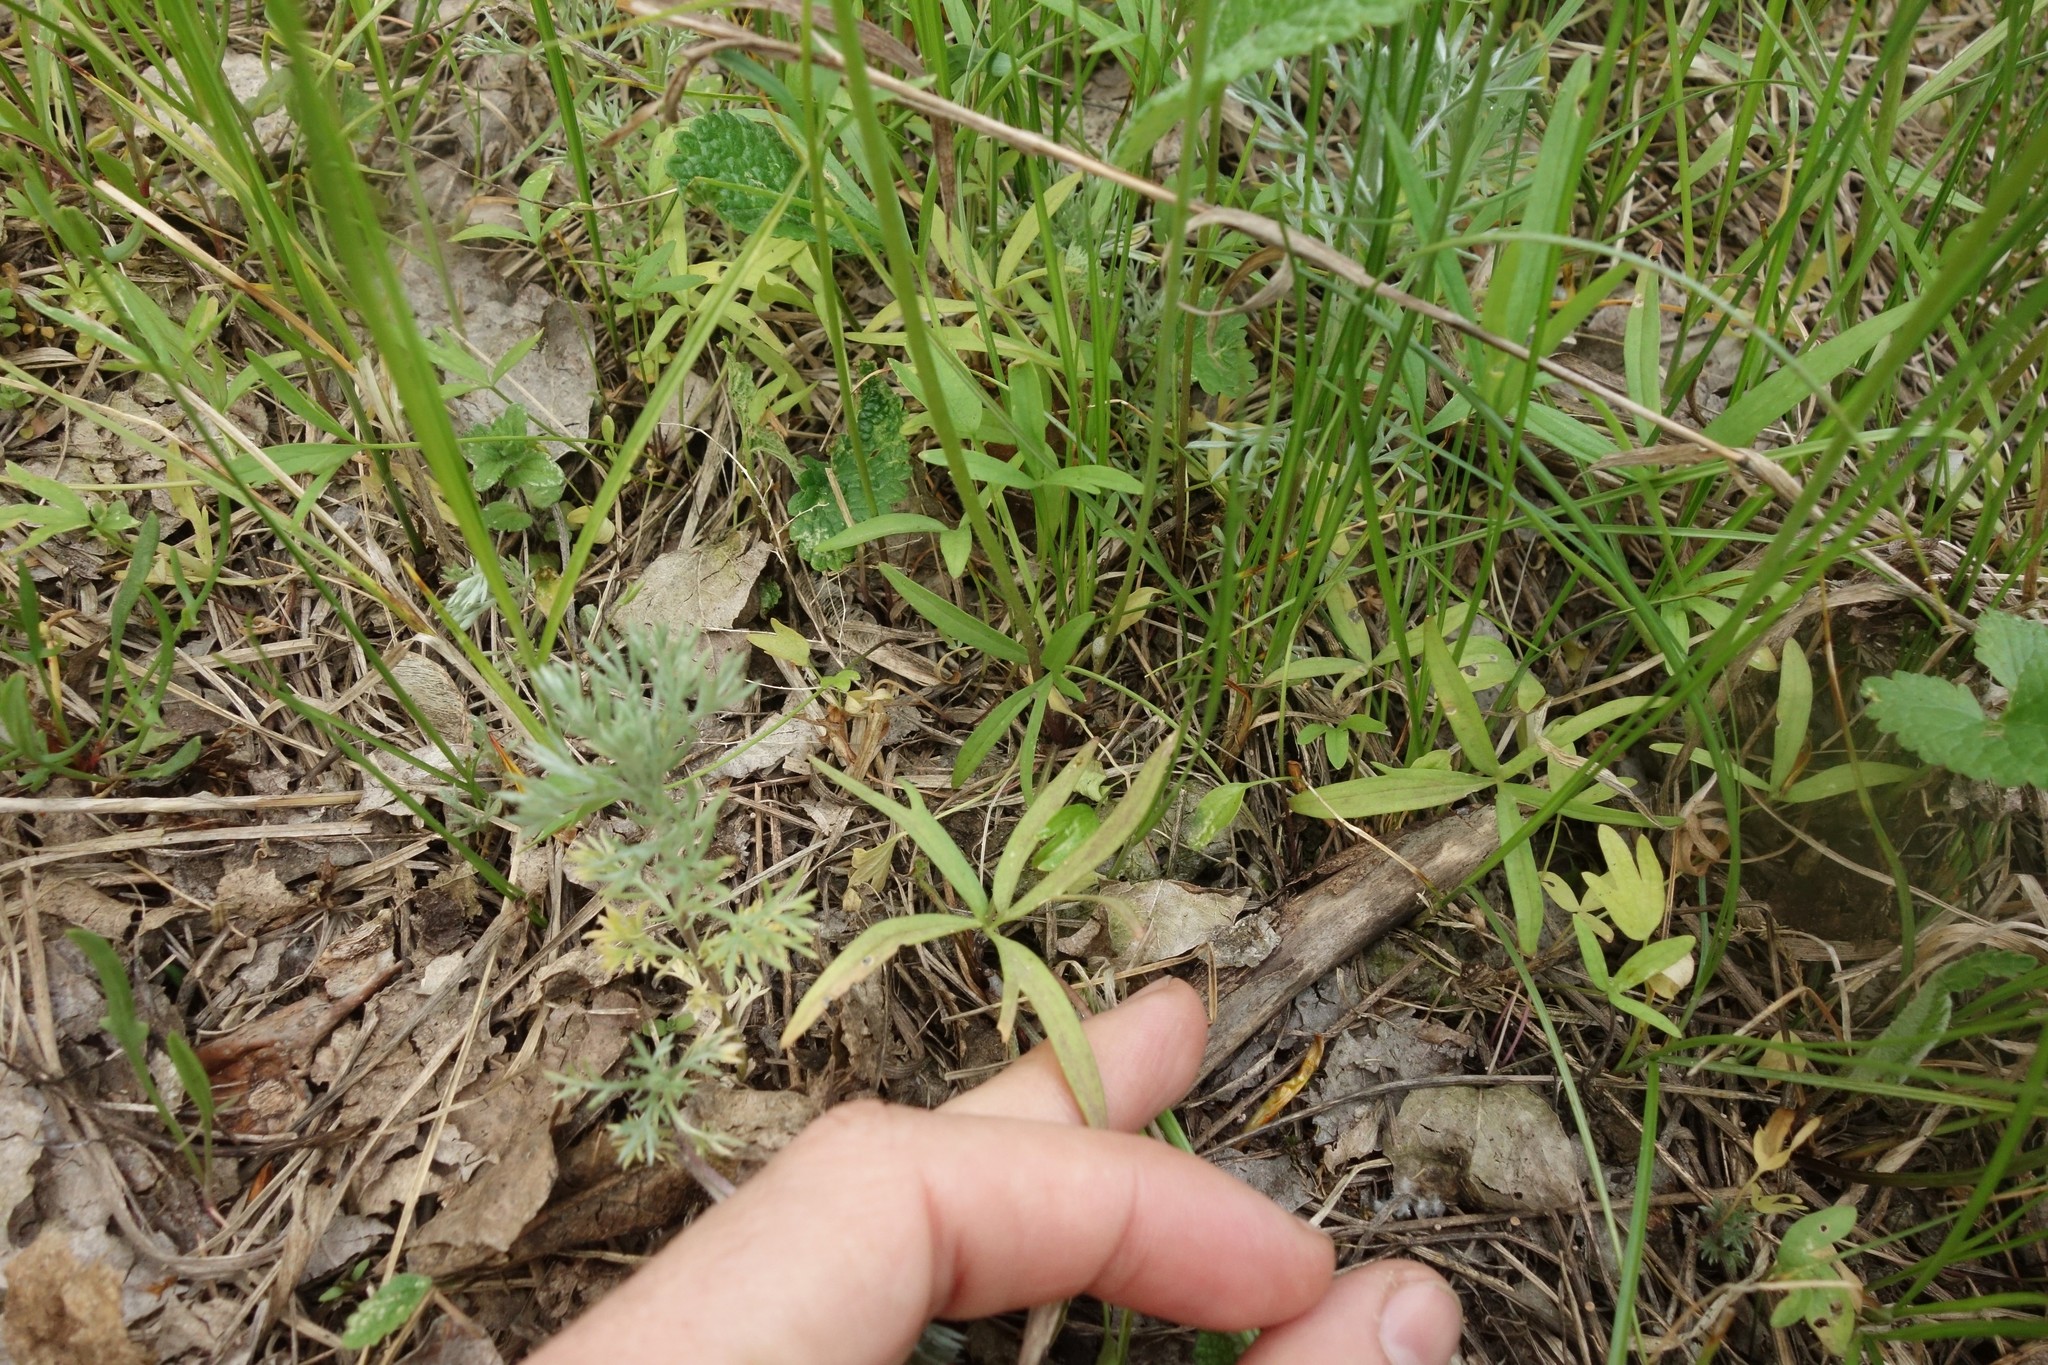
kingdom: Plantae
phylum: Tracheophyta
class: Magnoliopsida
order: Ranunculales
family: Ranunculaceae
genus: Ranunculus
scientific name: Ranunculus pedatus
